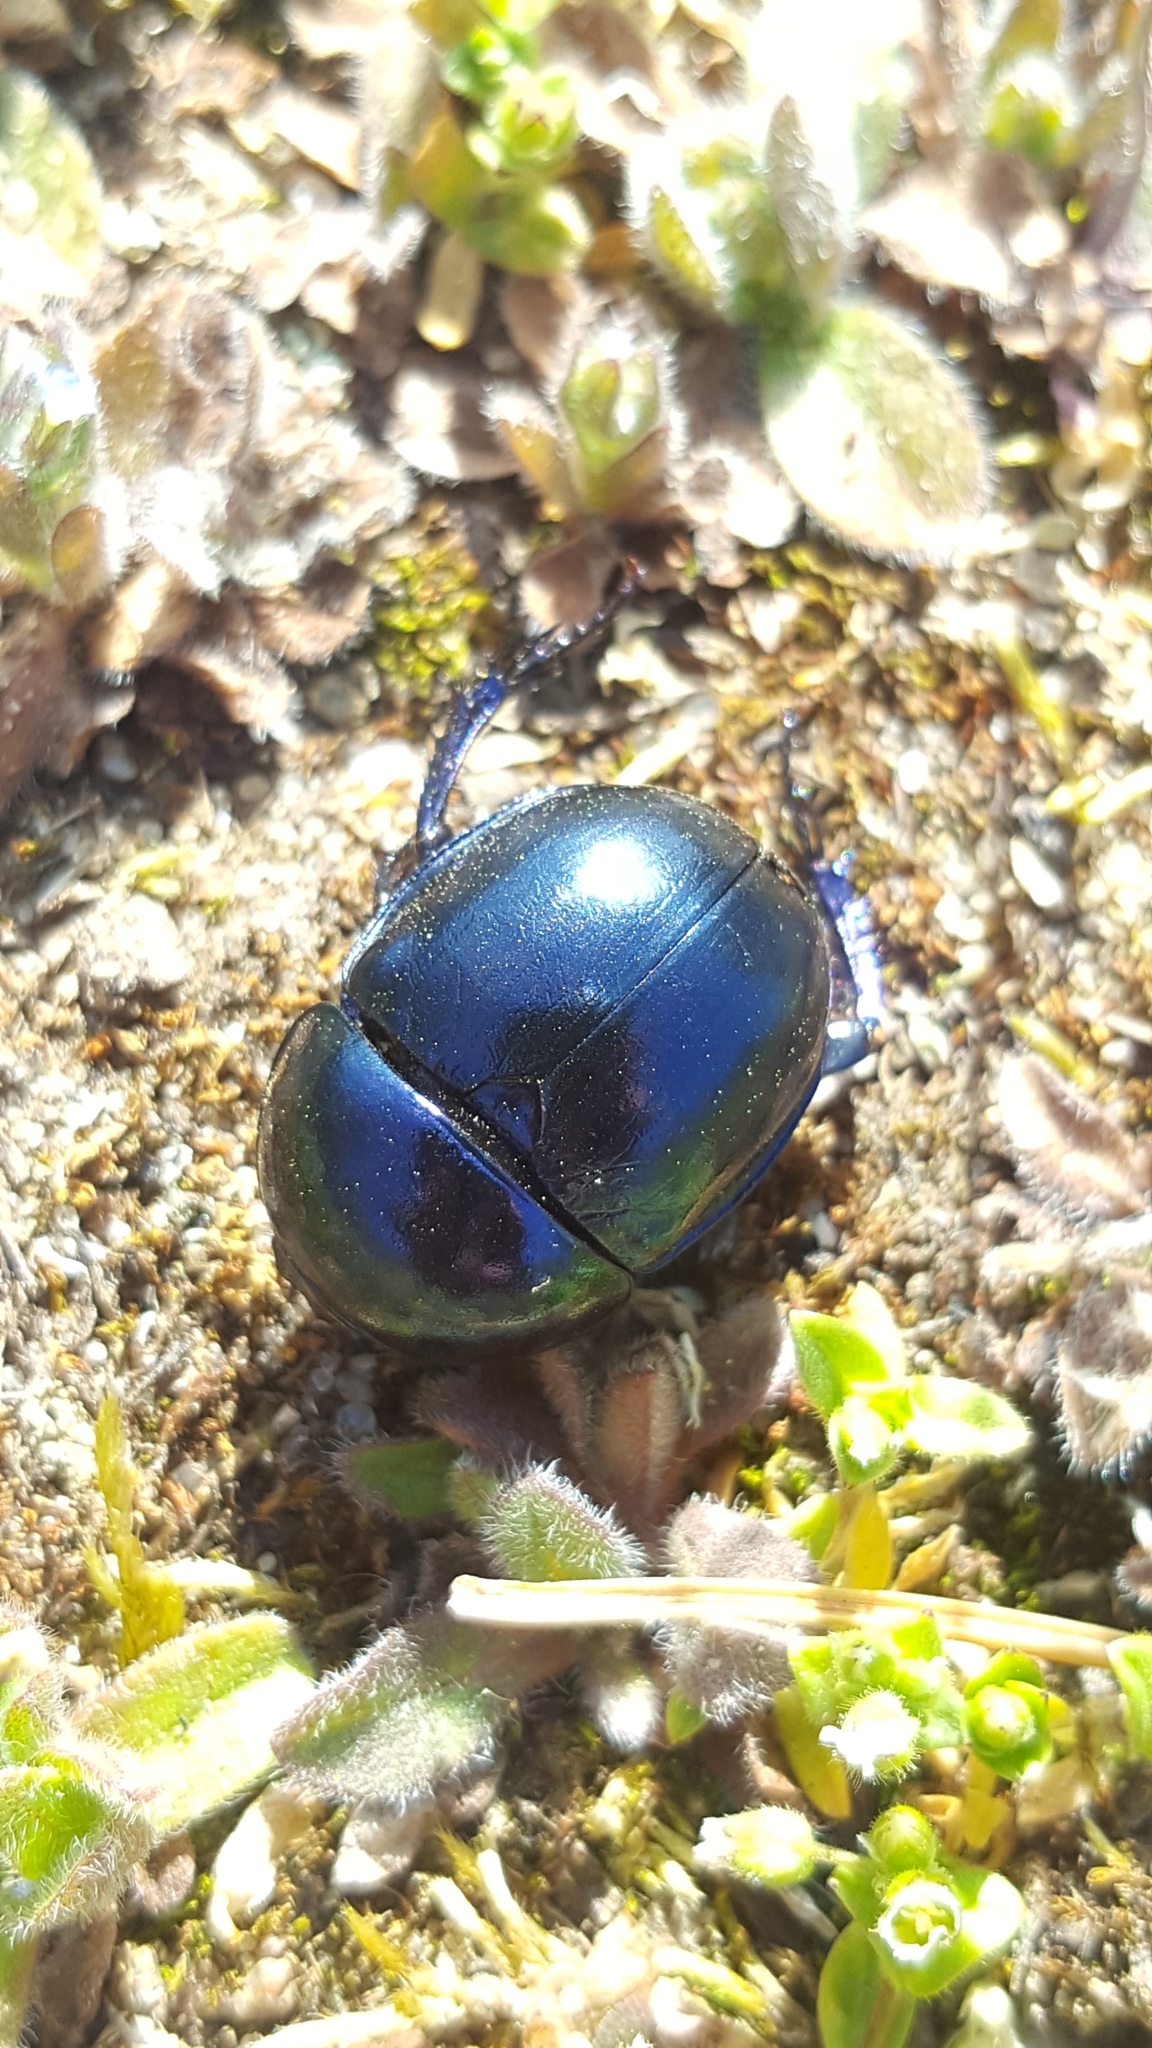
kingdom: Animalia
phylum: Arthropoda
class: Insecta
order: Coleoptera
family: Geotrupidae
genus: Trypocopris
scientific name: Trypocopris vernalis
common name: Spring dumbledor
